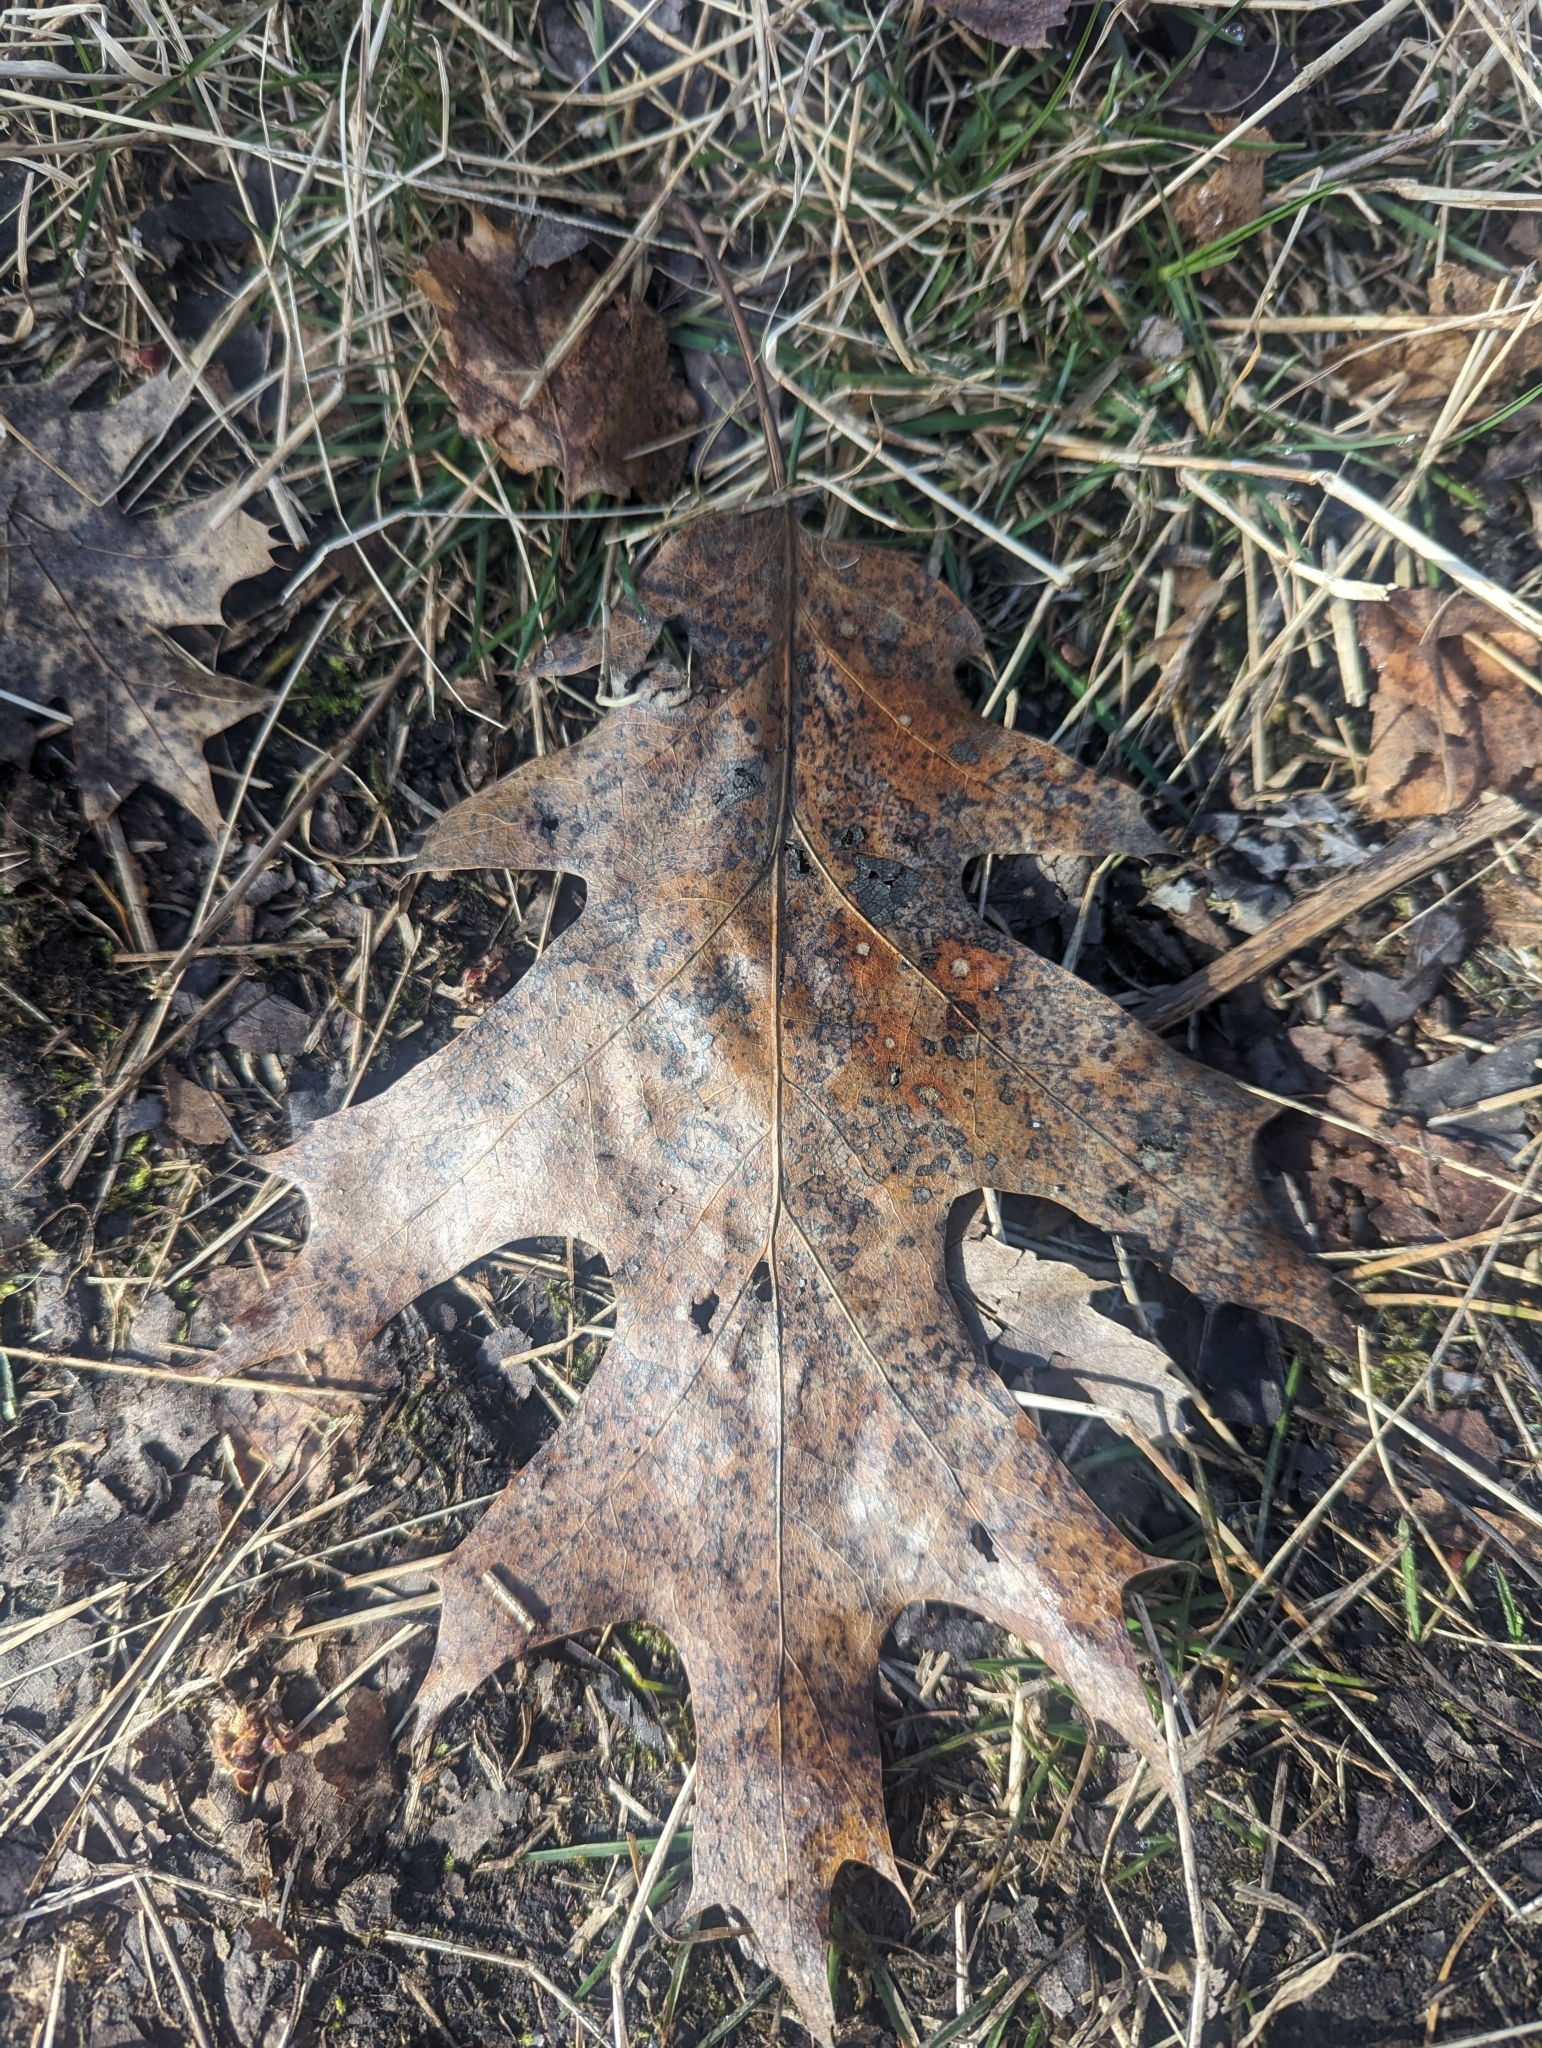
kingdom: Plantae
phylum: Tracheophyta
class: Magnoliopsida
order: Fagales
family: Fagaceae
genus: Quercus
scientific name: Quercus rubra
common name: Red oak
